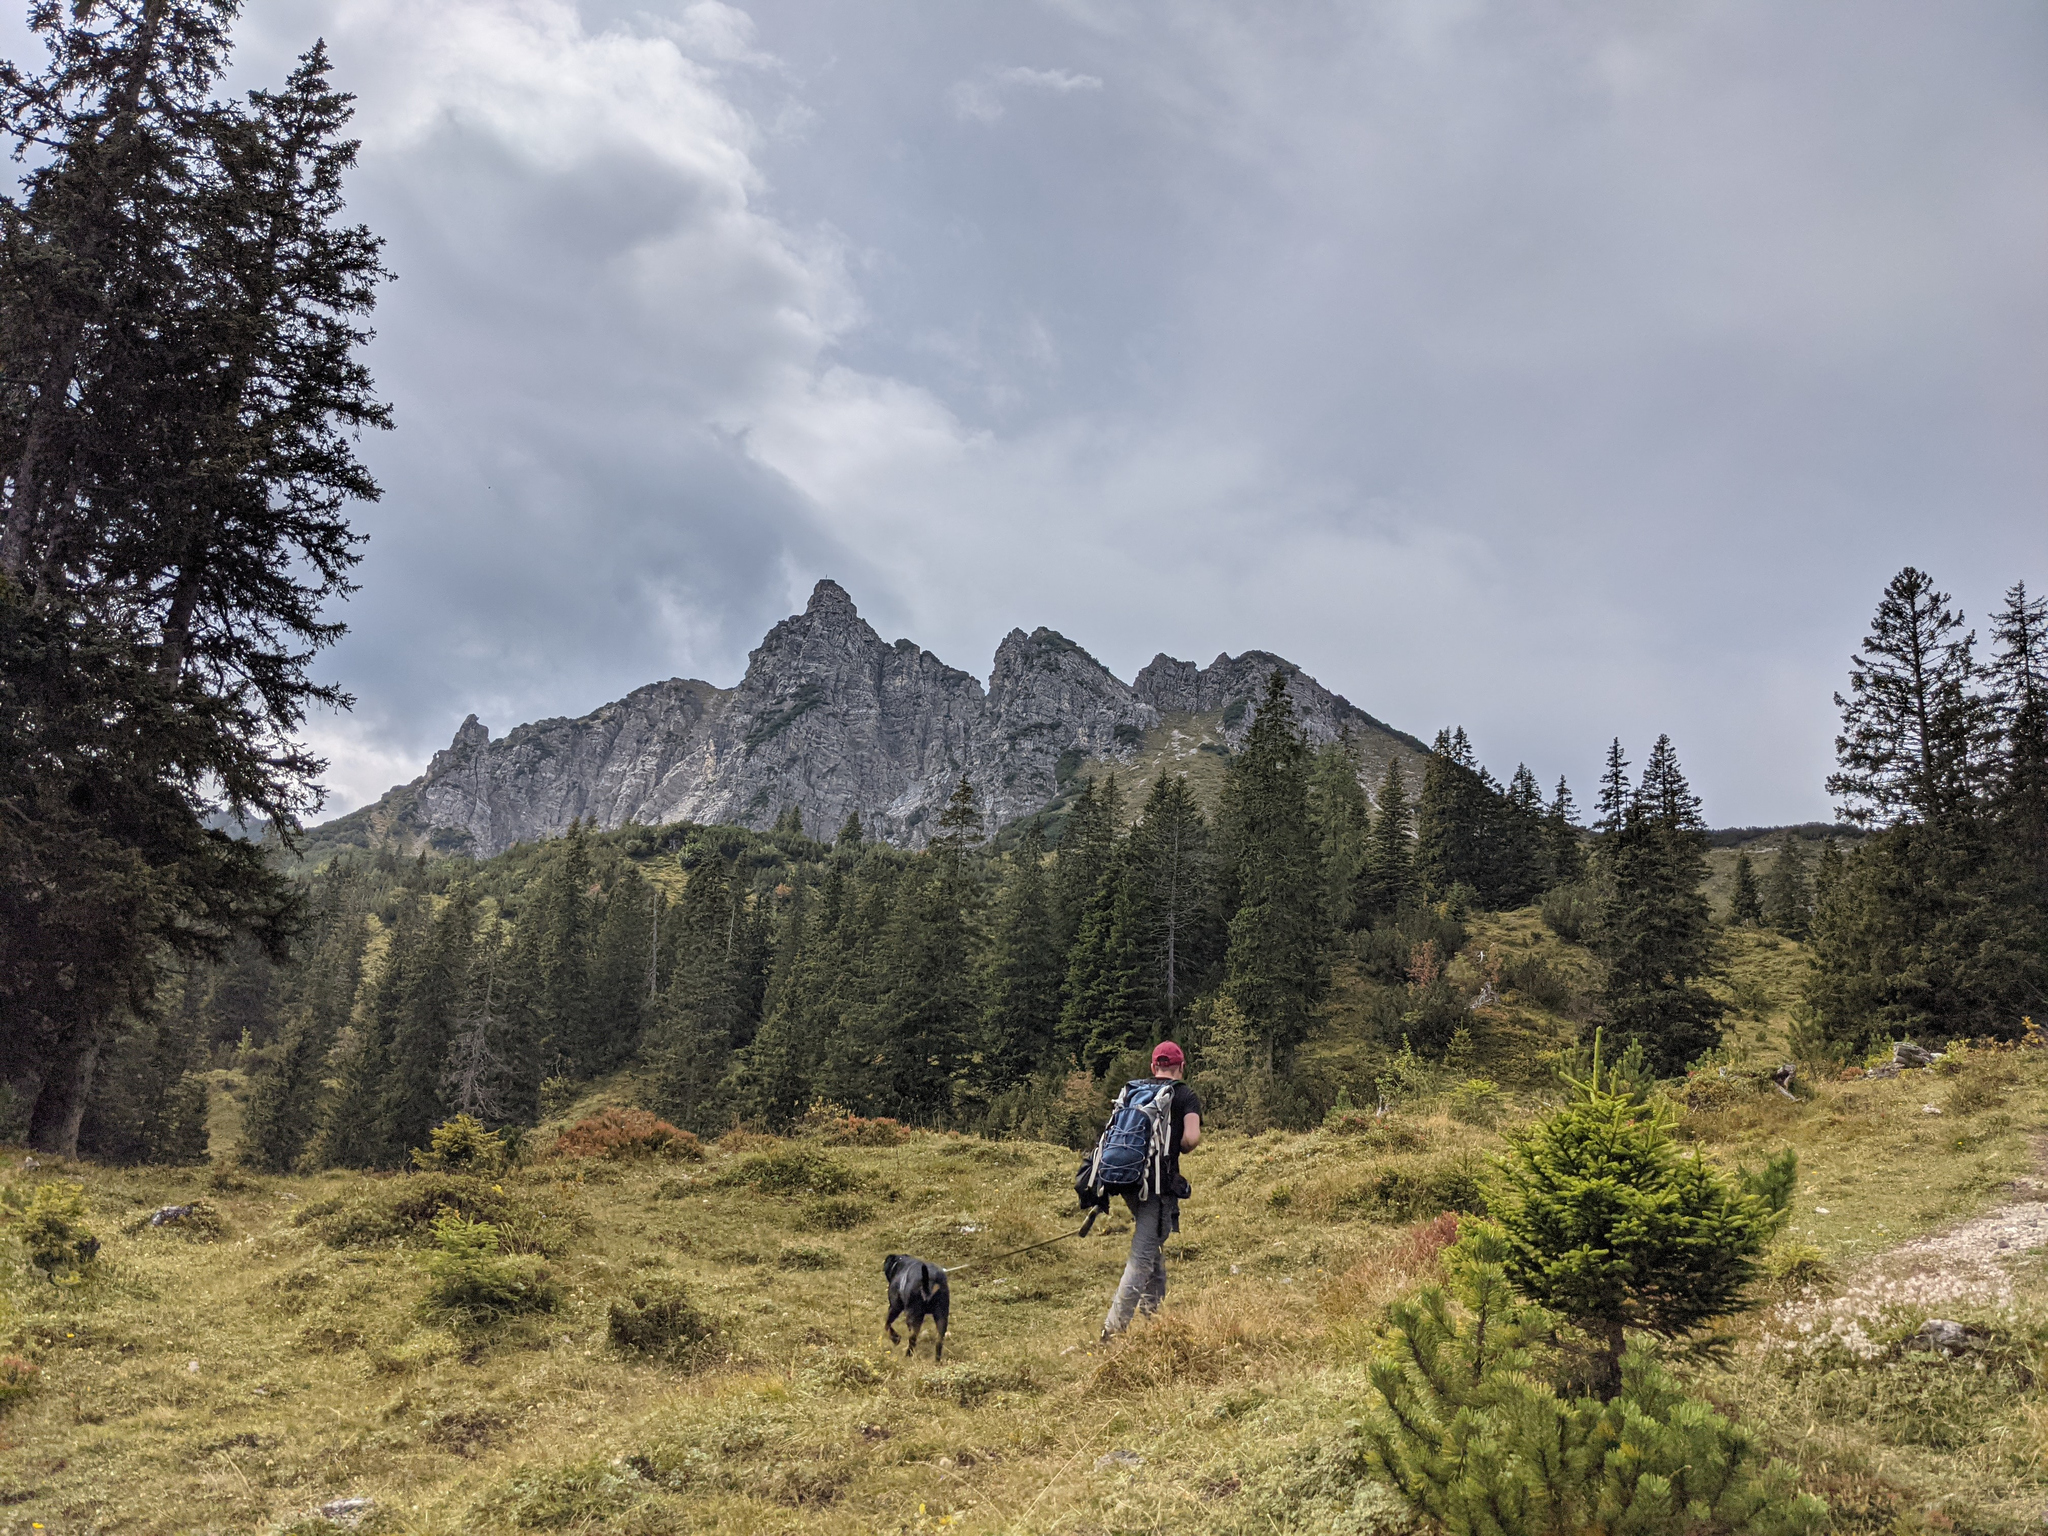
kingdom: Plantae
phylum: Tracheophyta
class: Pinopsida
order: Pinales
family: Pinaceae
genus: Picea
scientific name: Picea abies
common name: Norway spruce
